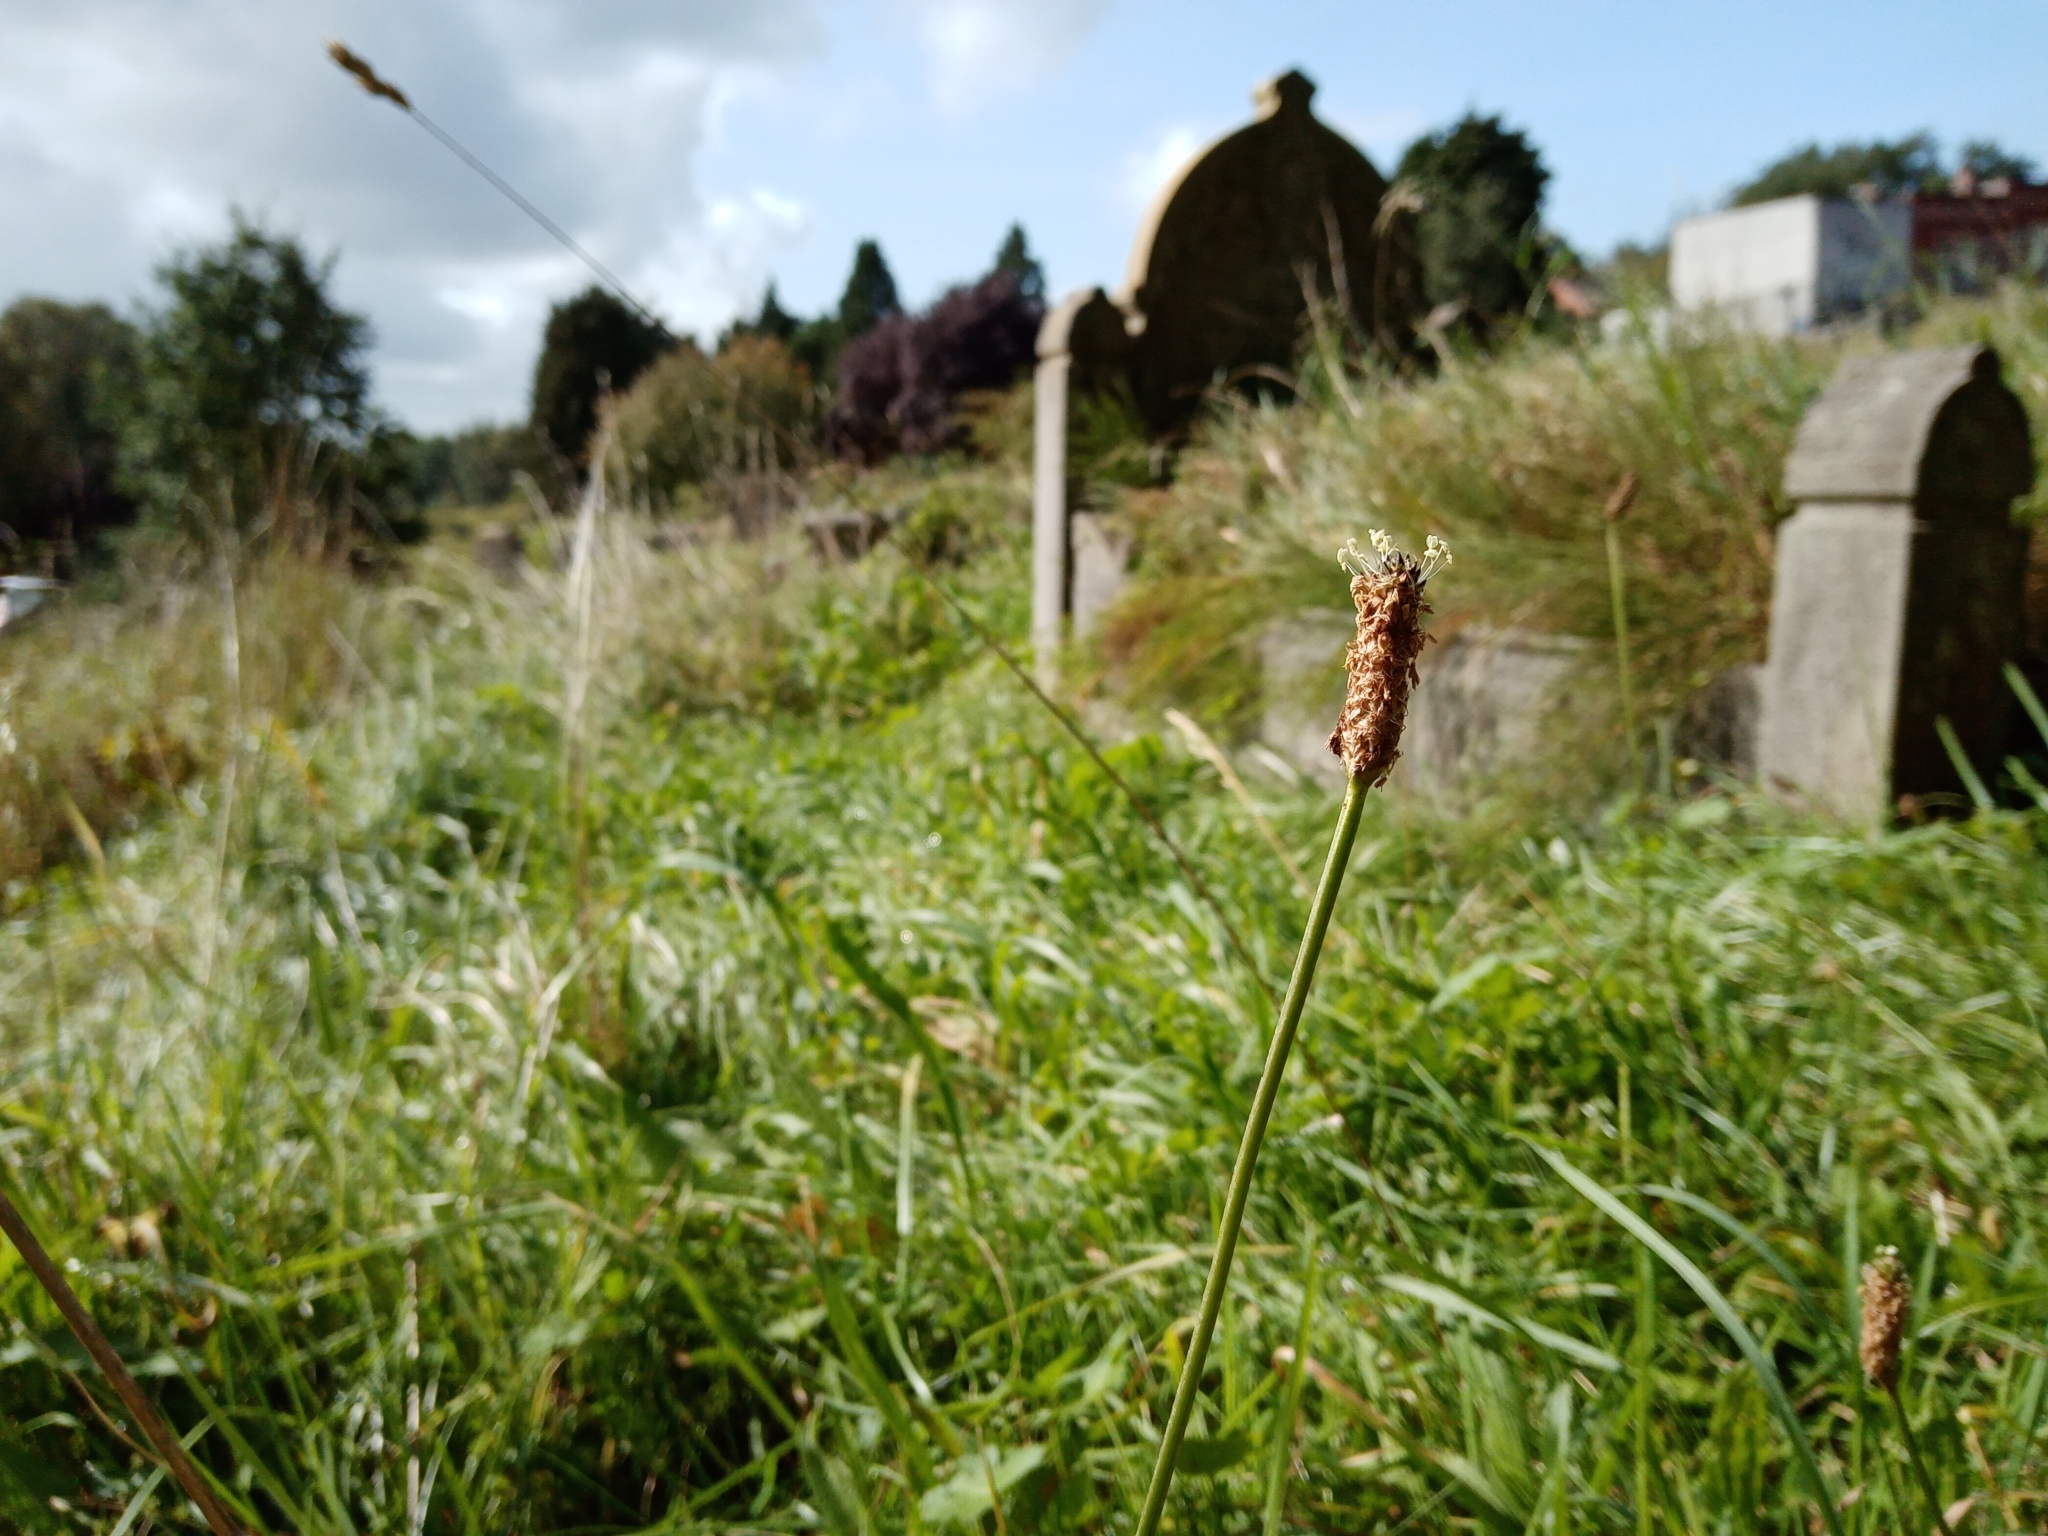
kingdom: Plantae
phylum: Tracheophyta
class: Magnoliopsida
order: Lamiales
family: Plantaginaceae
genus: Plantago
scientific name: Plantago lanceolata
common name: Ribwort plantain
